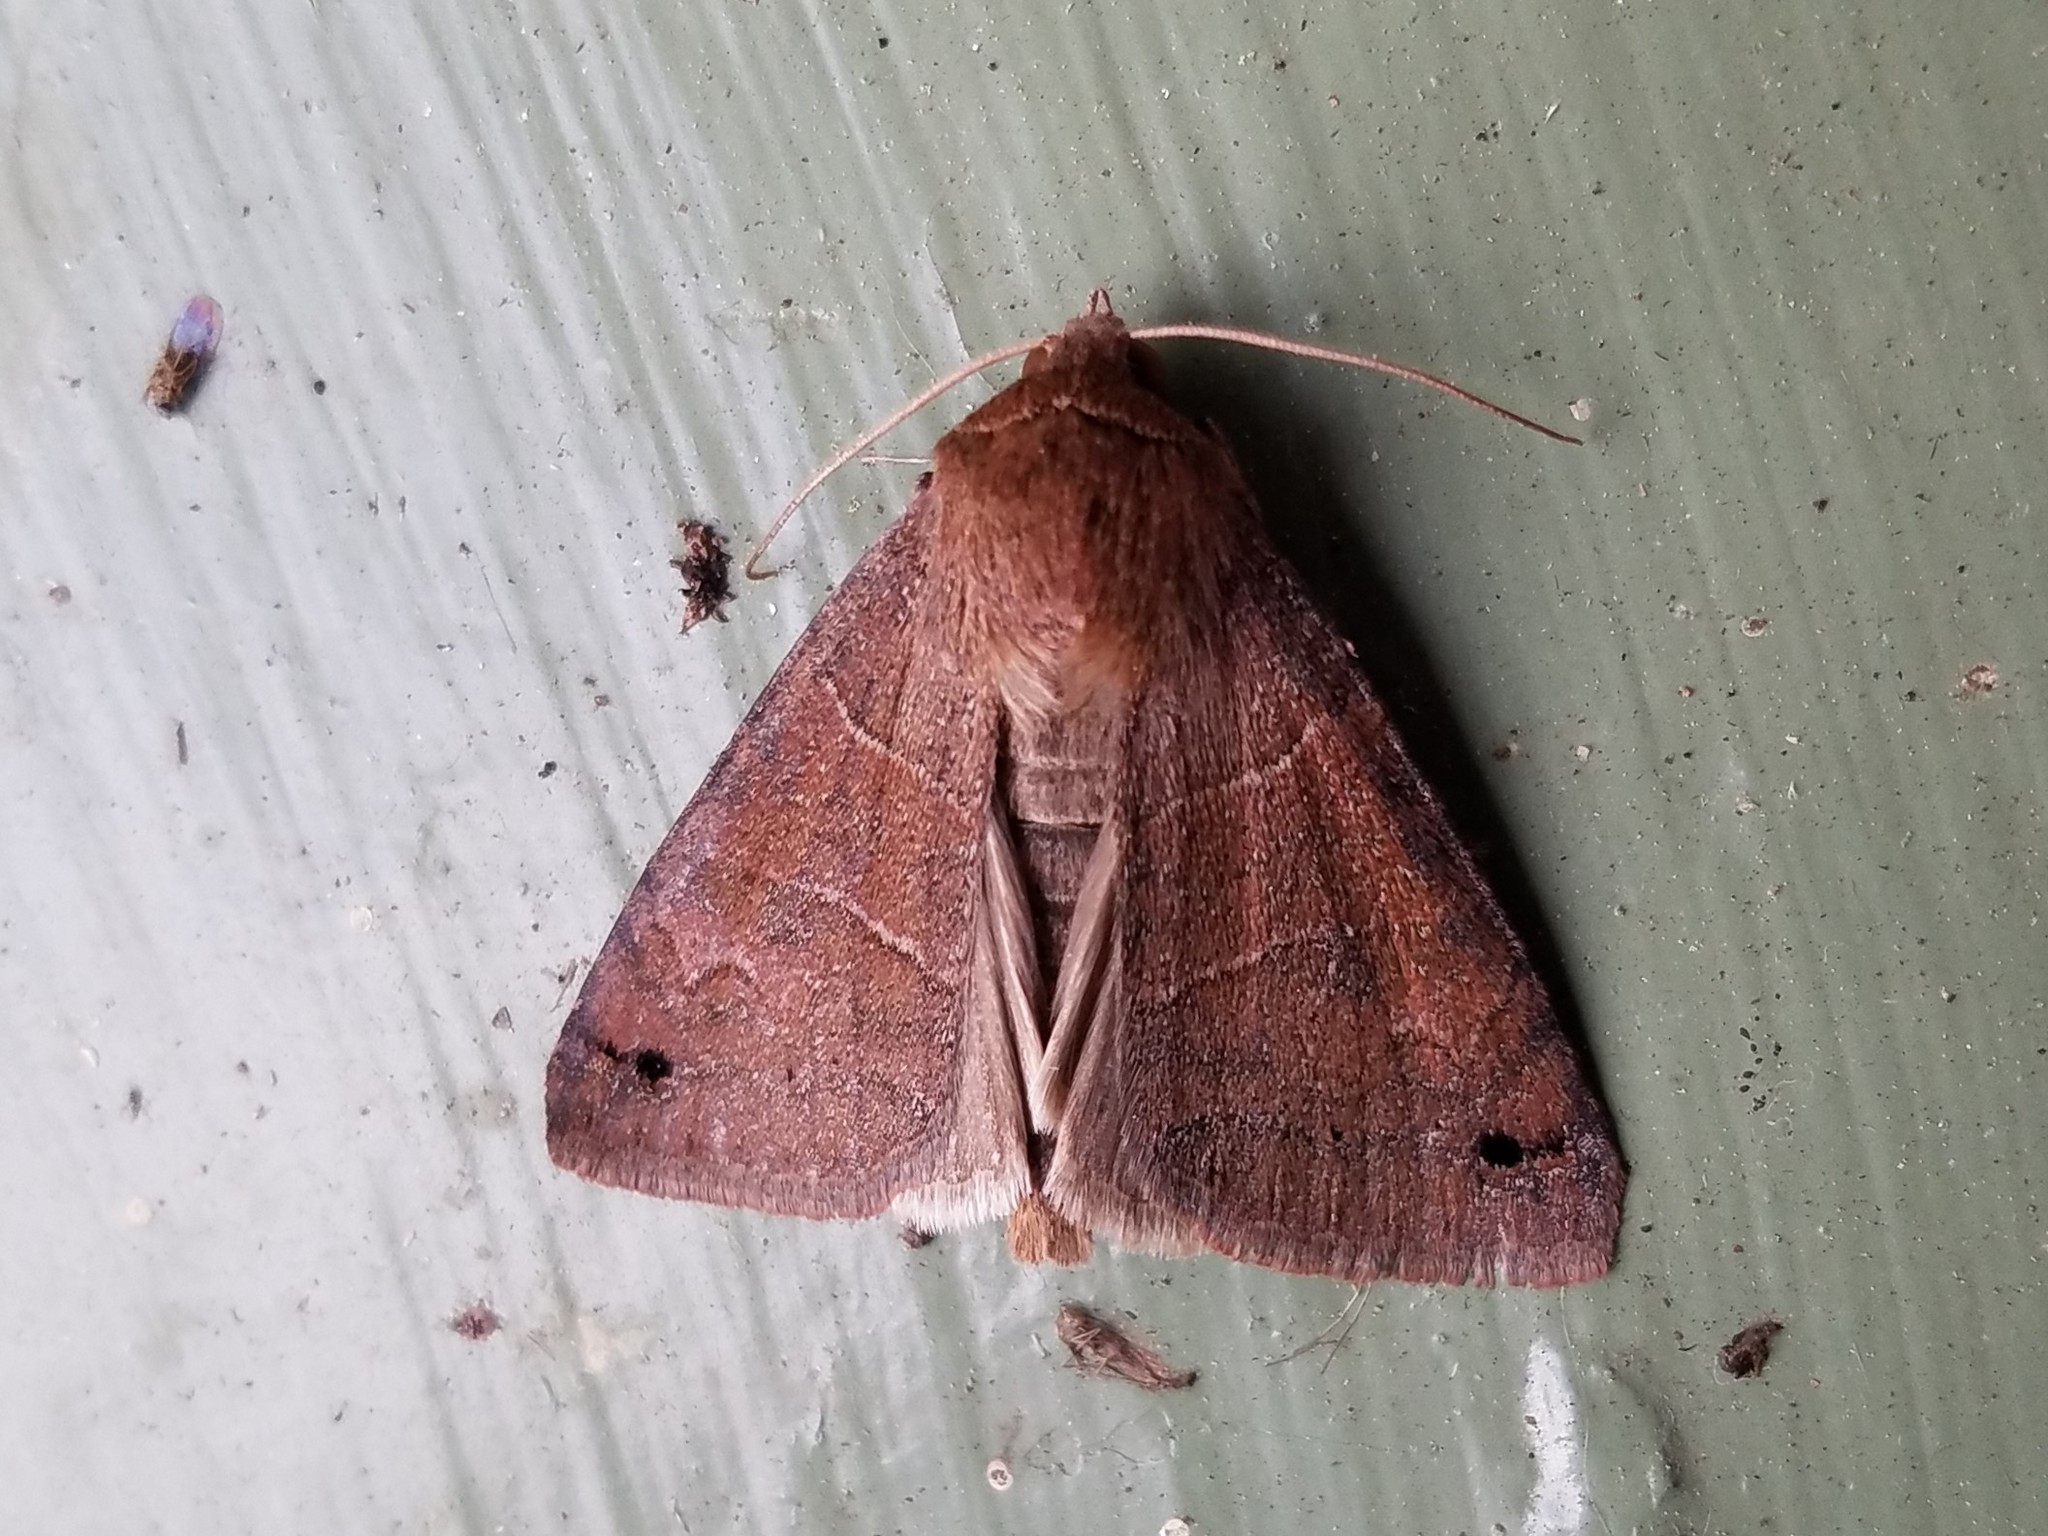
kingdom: Animalia
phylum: Arthropoda
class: Insecta
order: Lepidoptera
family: Erebidae
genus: Cissusa
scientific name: Cissusa spadix
